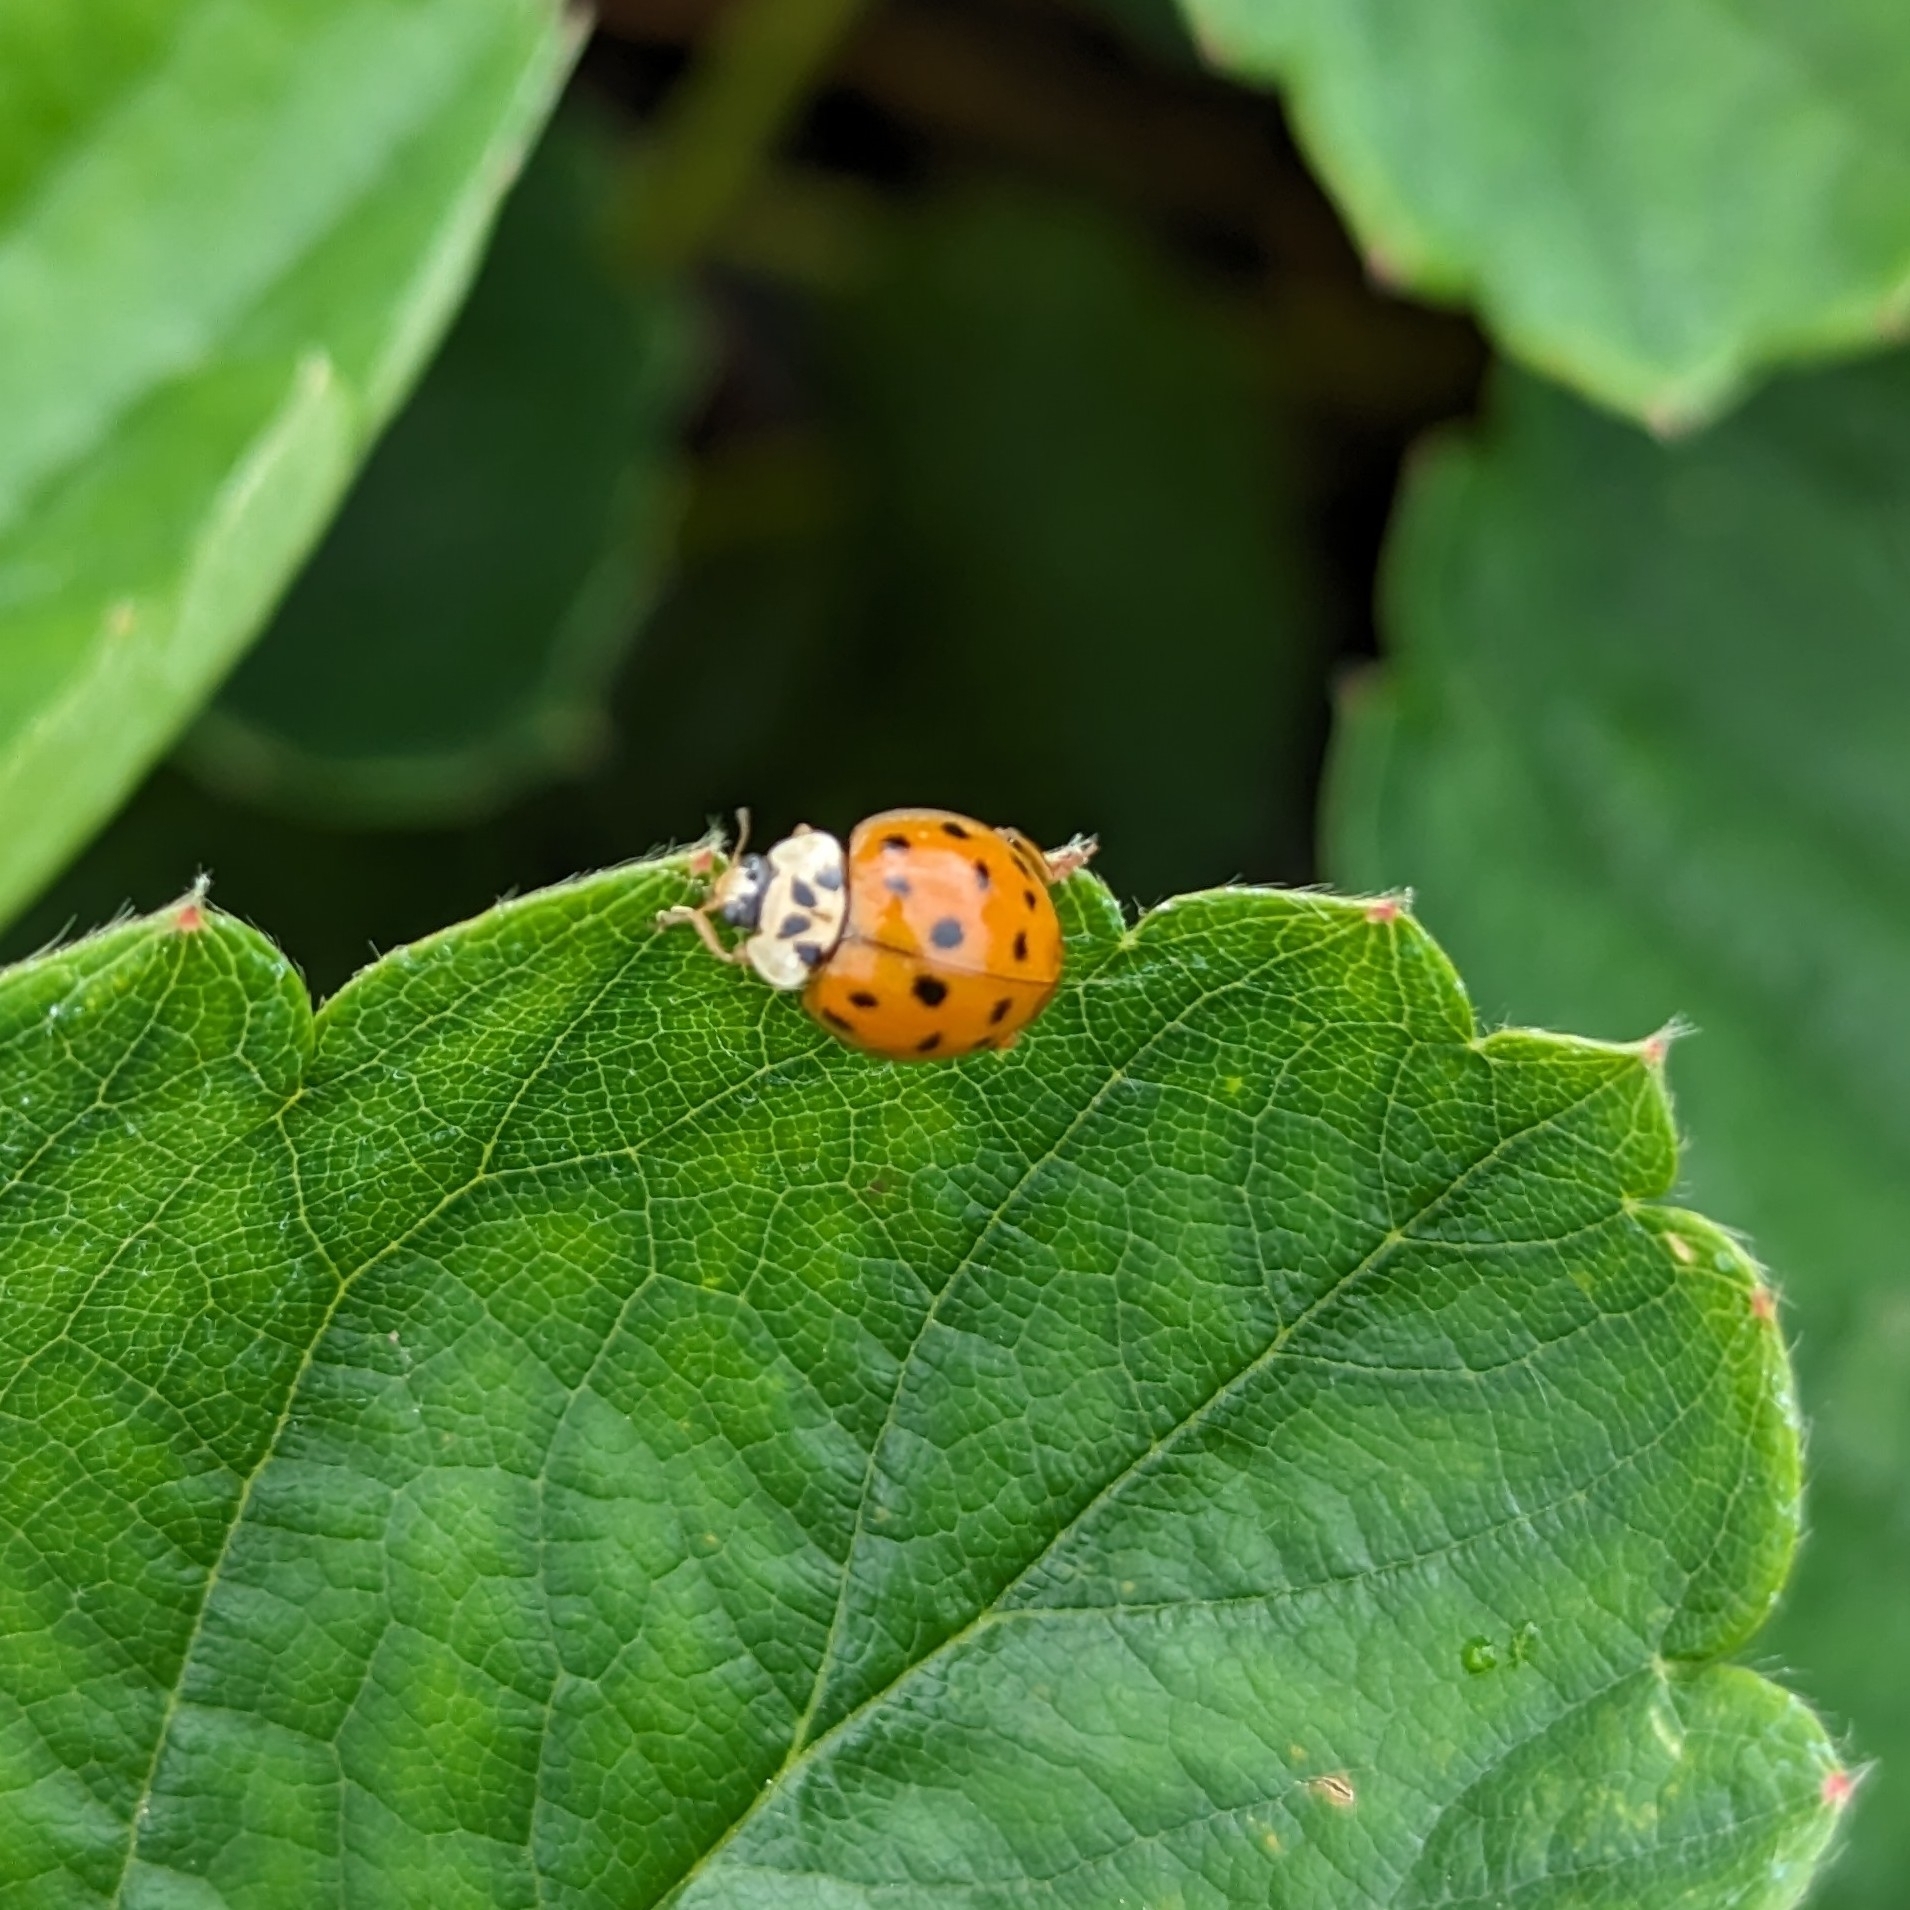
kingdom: Animalia
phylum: Arthropoda
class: Insecta
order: Coleoptera
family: Coccinellidae
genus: Harmonia
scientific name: Harmonia axyridis
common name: Harlequin ladybird
